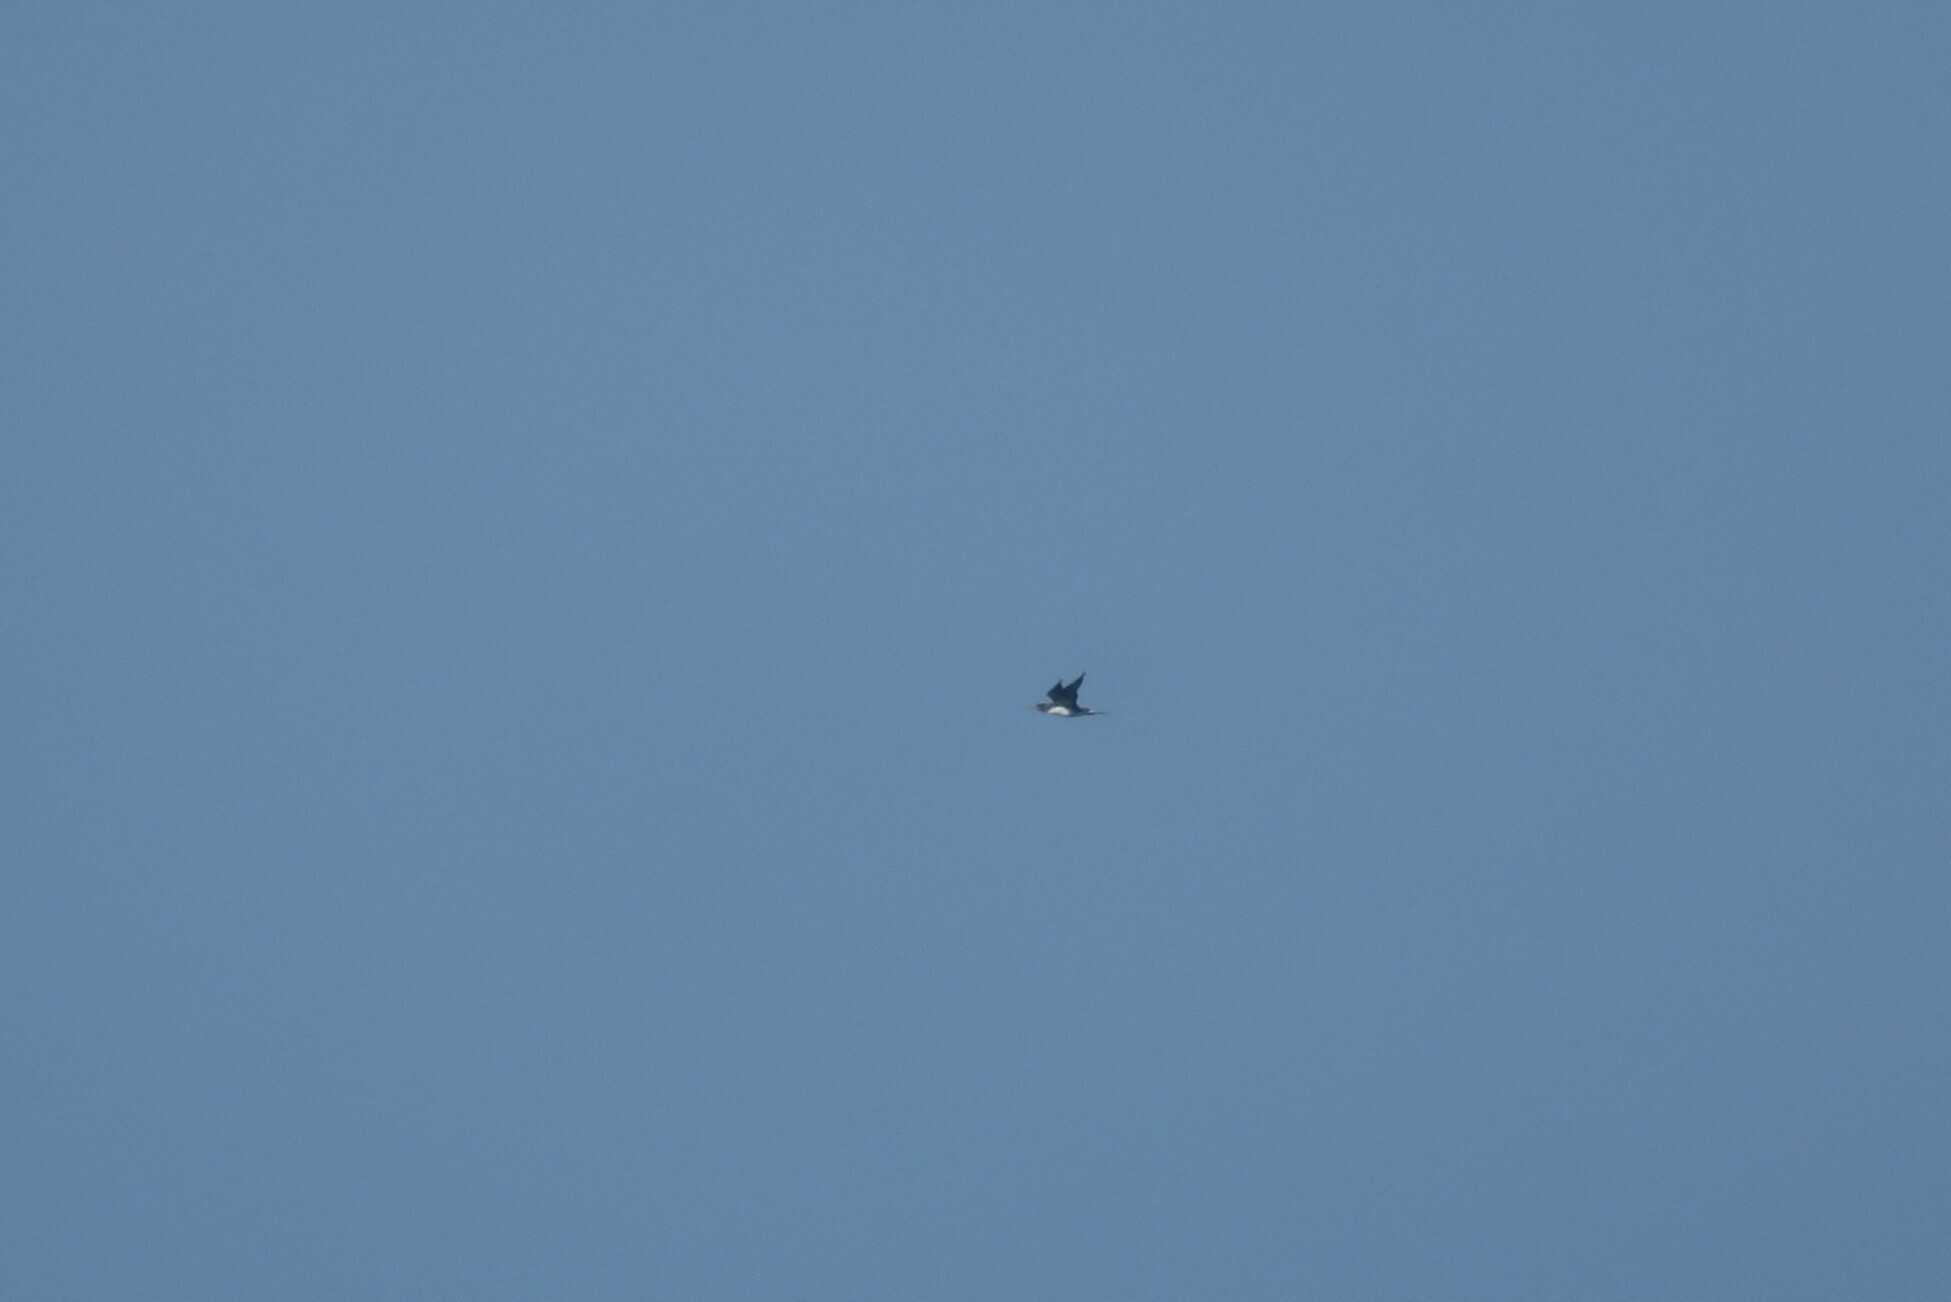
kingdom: Animalia
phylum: Chordata
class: Aves
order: Suliformes
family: Sulidae
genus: Morus
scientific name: Morus bassanus
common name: Northern gannet
